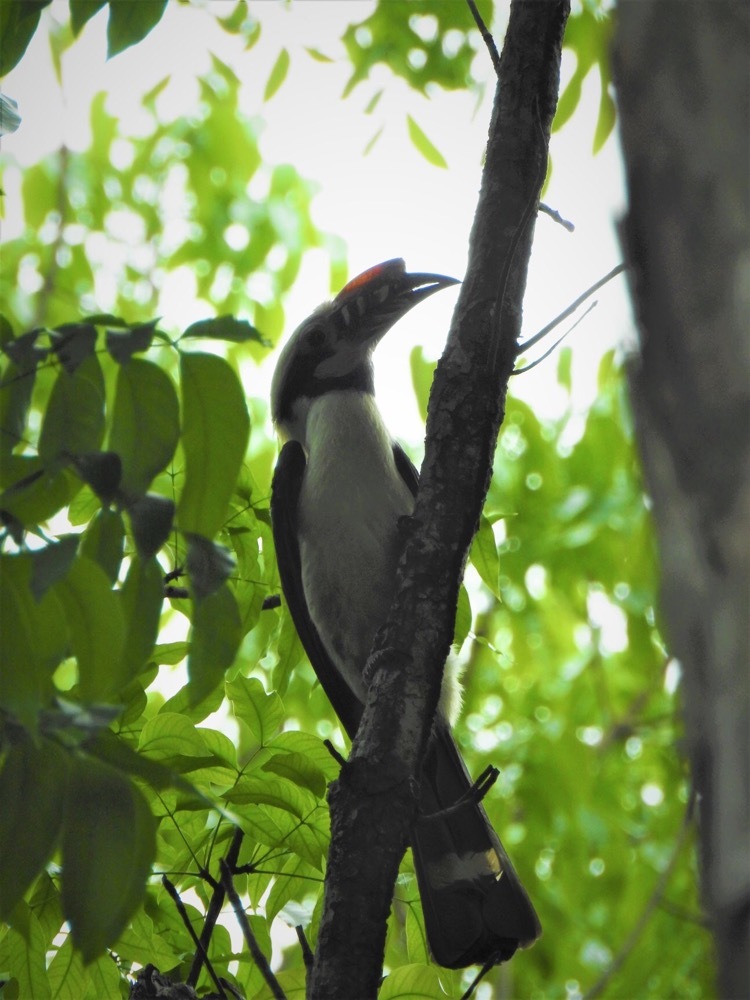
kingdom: Animalia
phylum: Chordata
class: Aves
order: Bucerotiformes
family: Bucerotidae
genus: Penelopides
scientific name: Penelopides manillae
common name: Luzon hornbill
